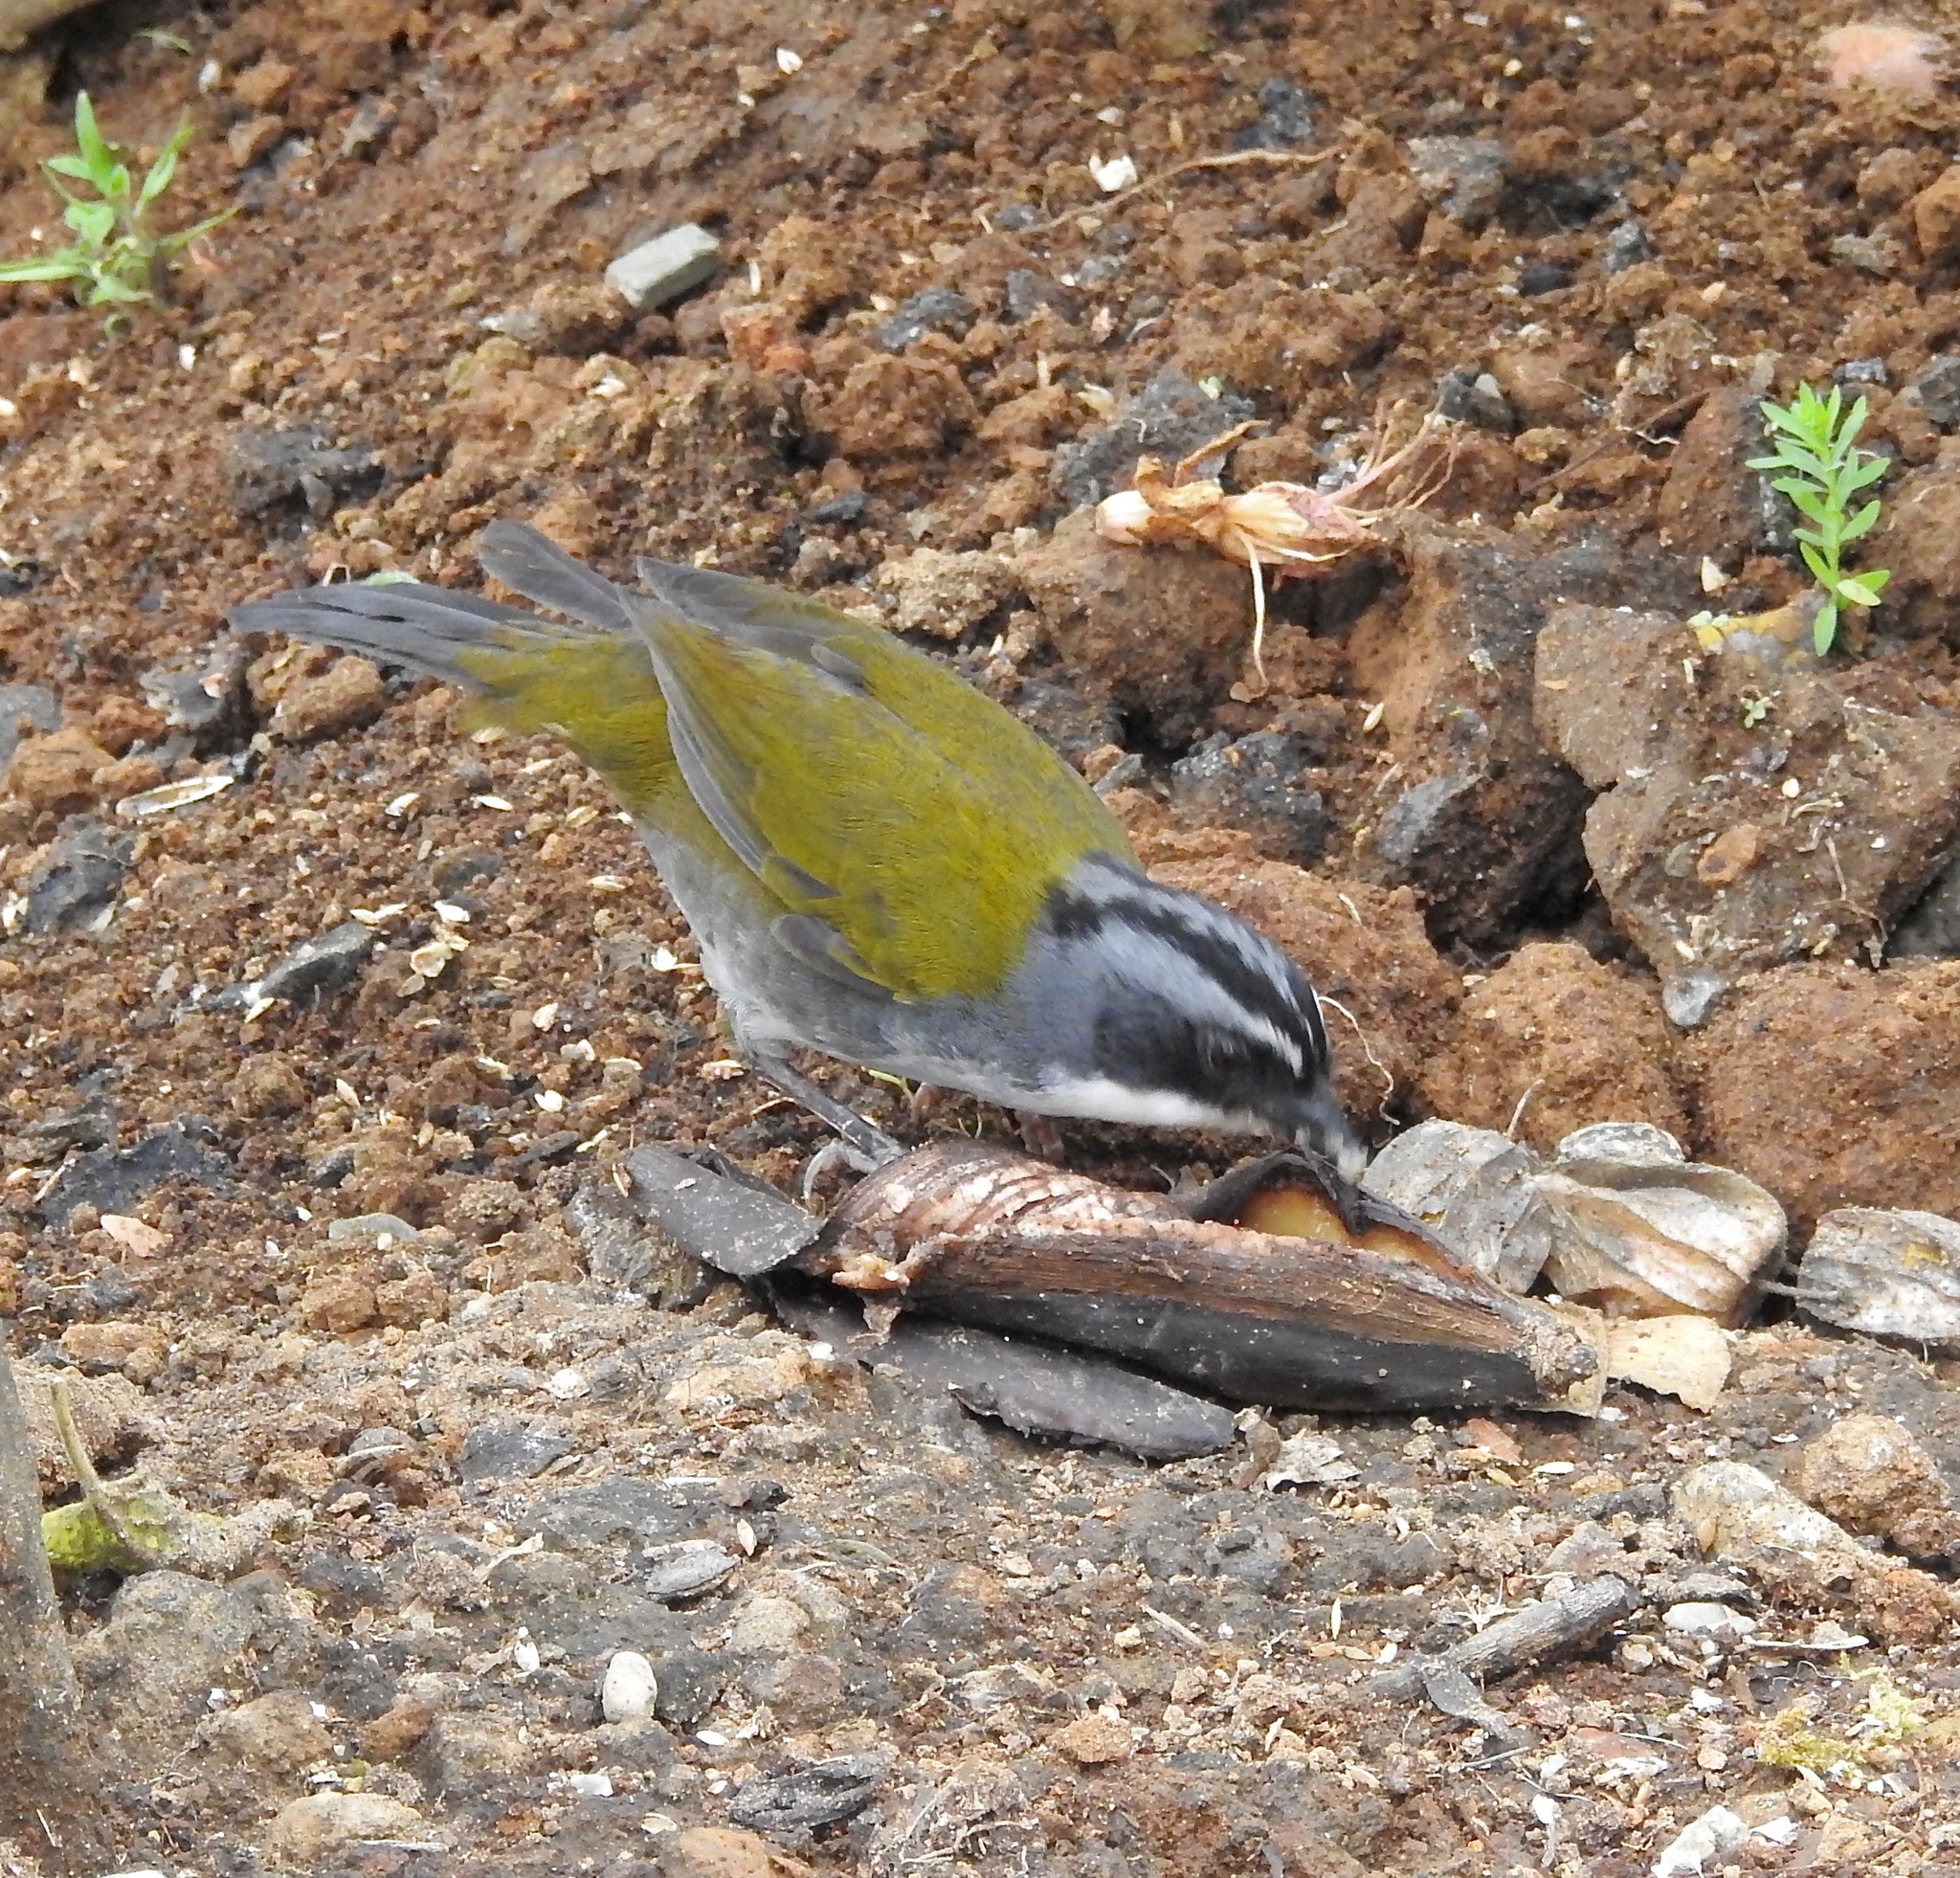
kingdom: Animalia
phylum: Chordata
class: Aves
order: Passeriformes
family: Passerellidae
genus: Arremon
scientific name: Arremon assimilis
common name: Grey-browed brushfinch
